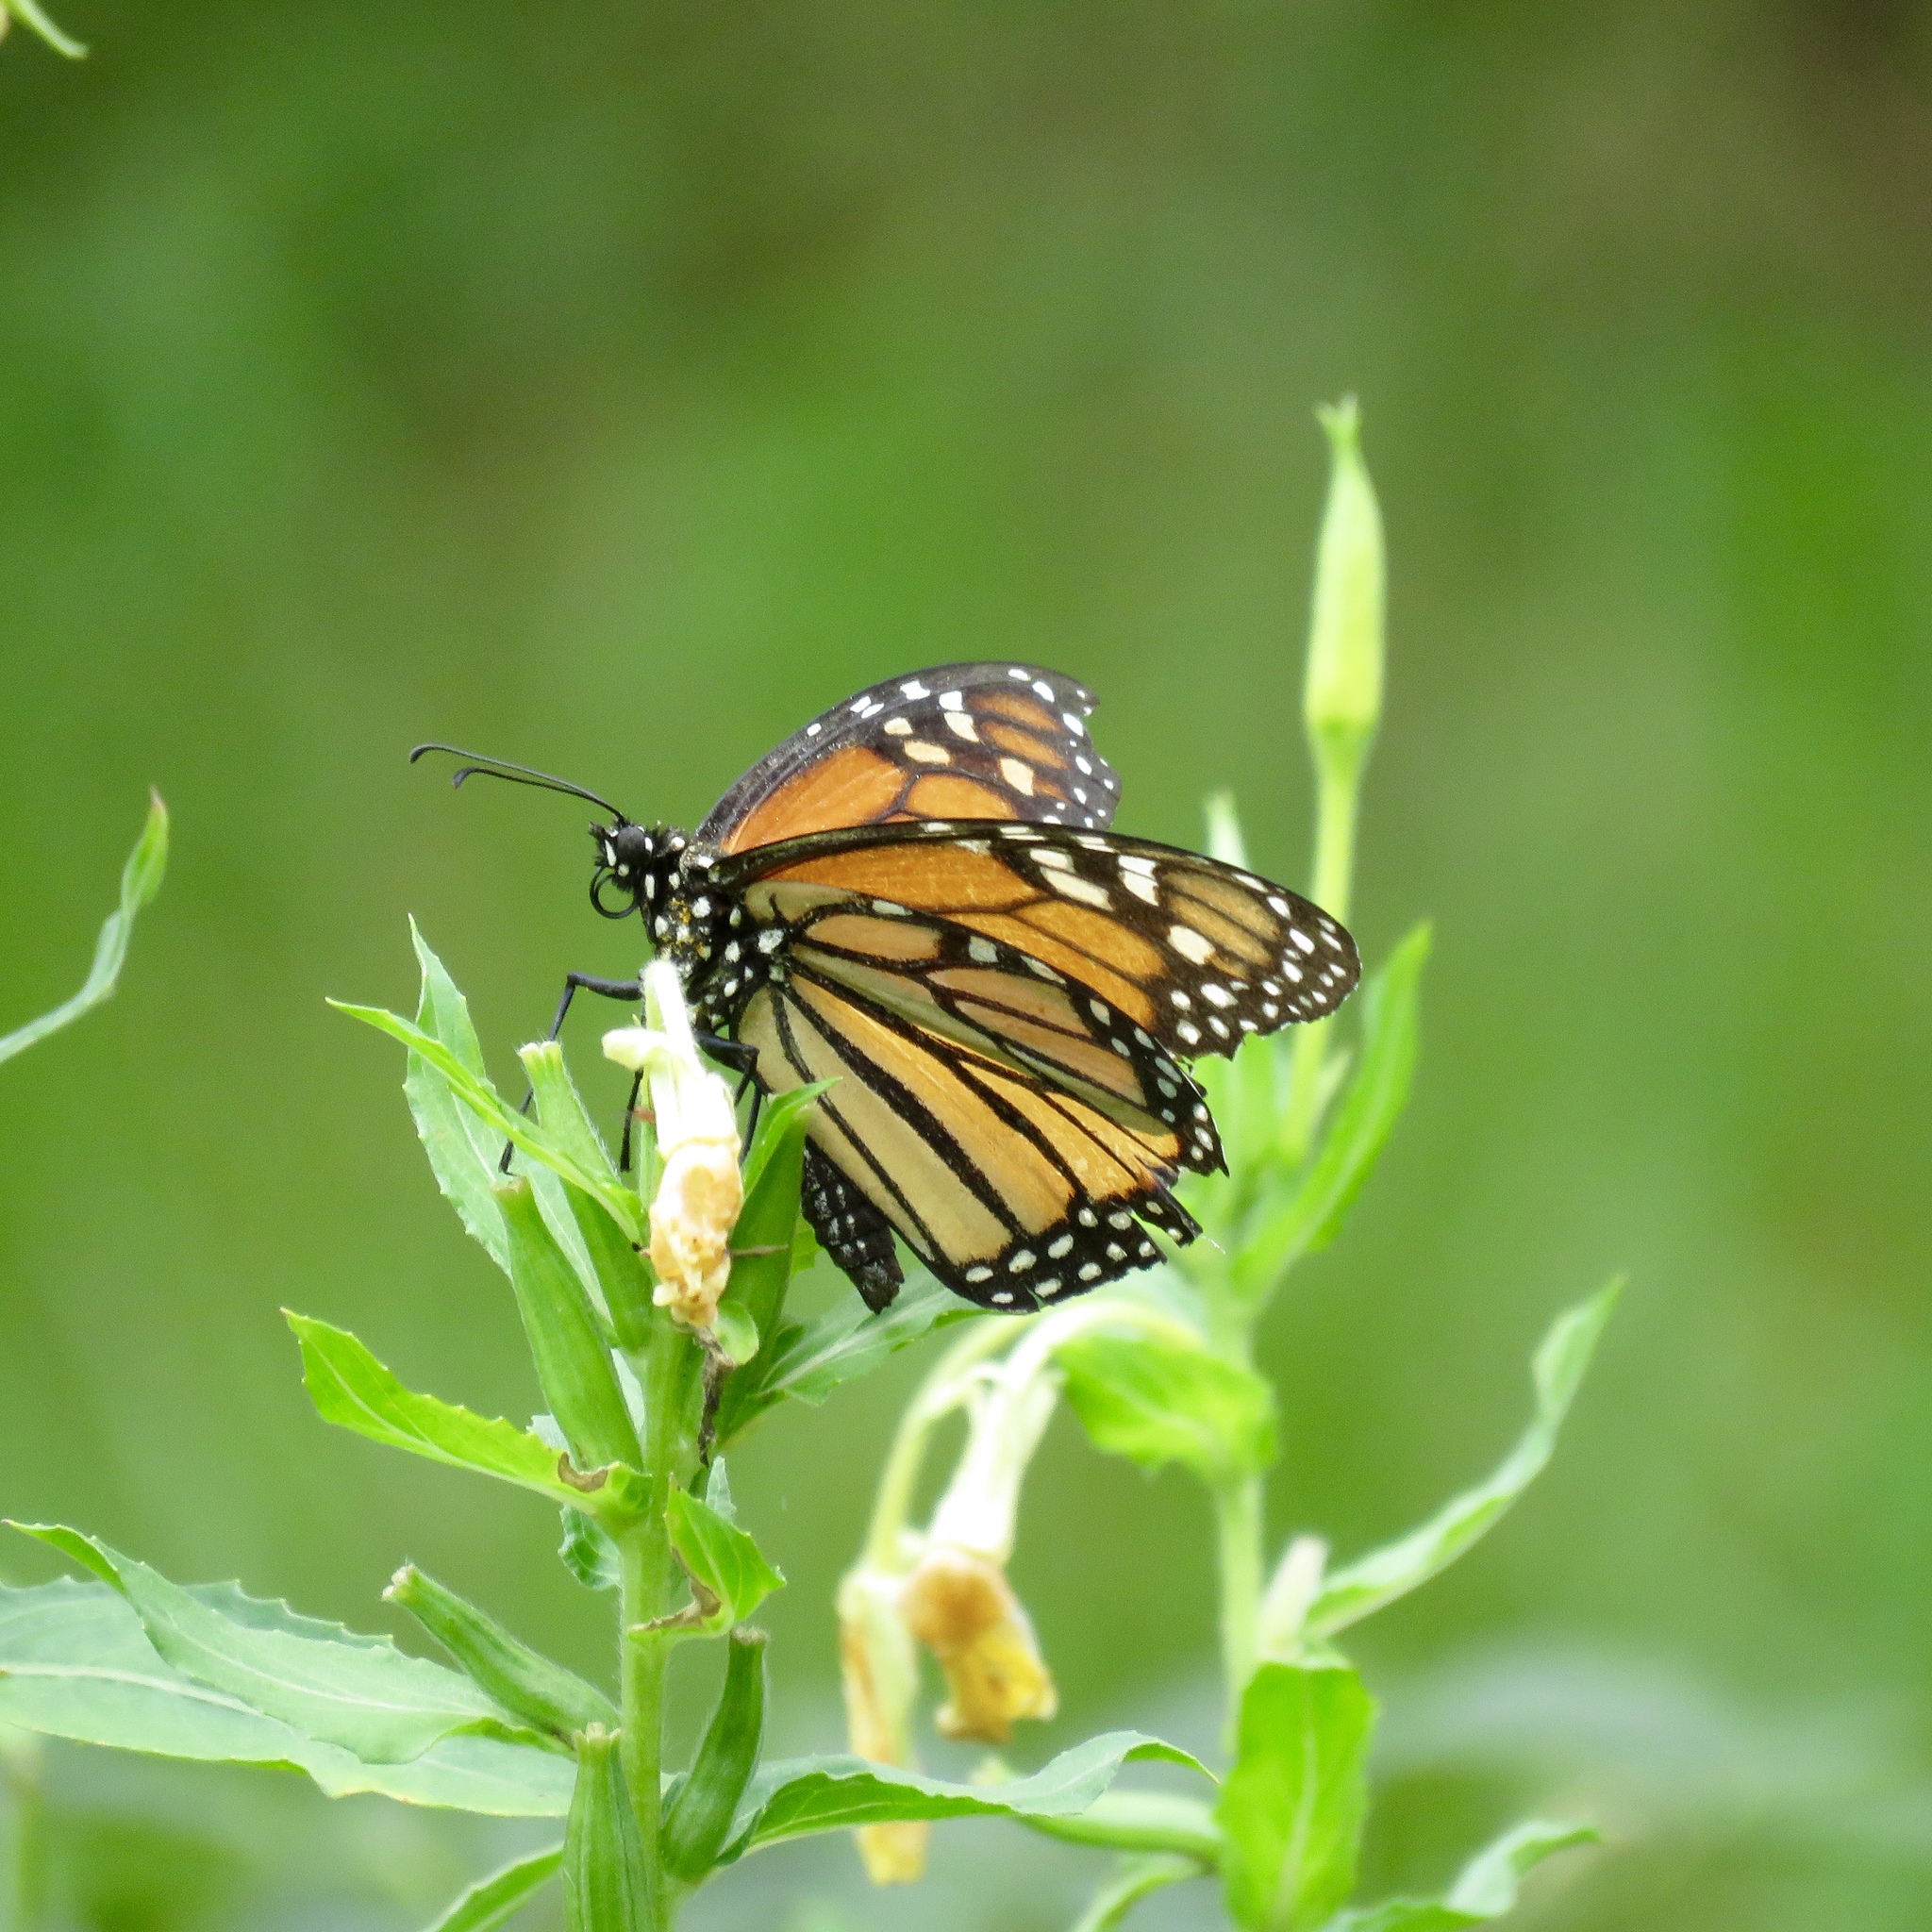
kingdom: Animalia
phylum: Arthropoda
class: Insecta
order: Lepidoptera
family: Nymphalidae
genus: Danaus
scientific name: Danaus plexippus
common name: Monarch
